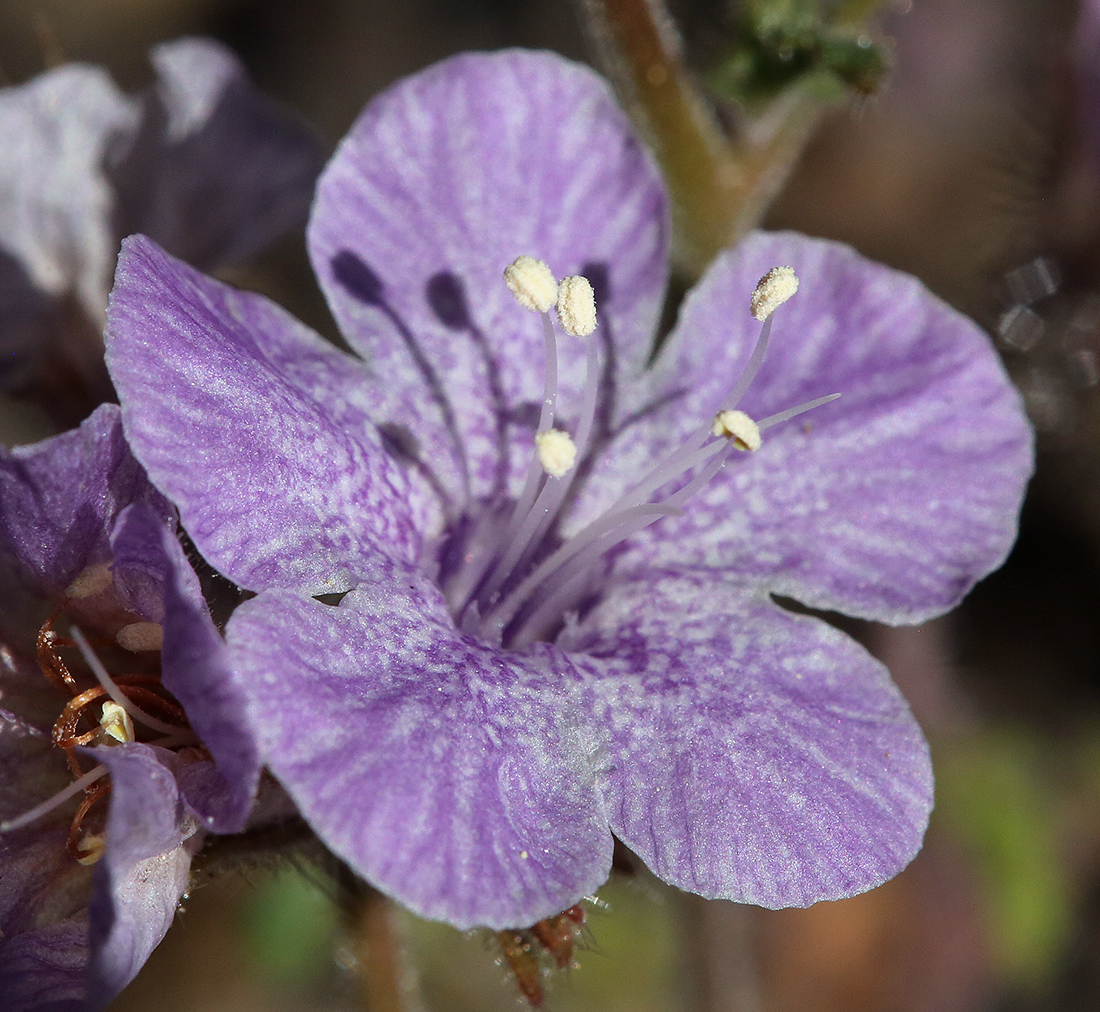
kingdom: Plantae
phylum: Tracheophyta
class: Magnoliopsida
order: Boraginales
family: Hydrophyllaceae
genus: Phacelia
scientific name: Phacelia vallis-mortae
